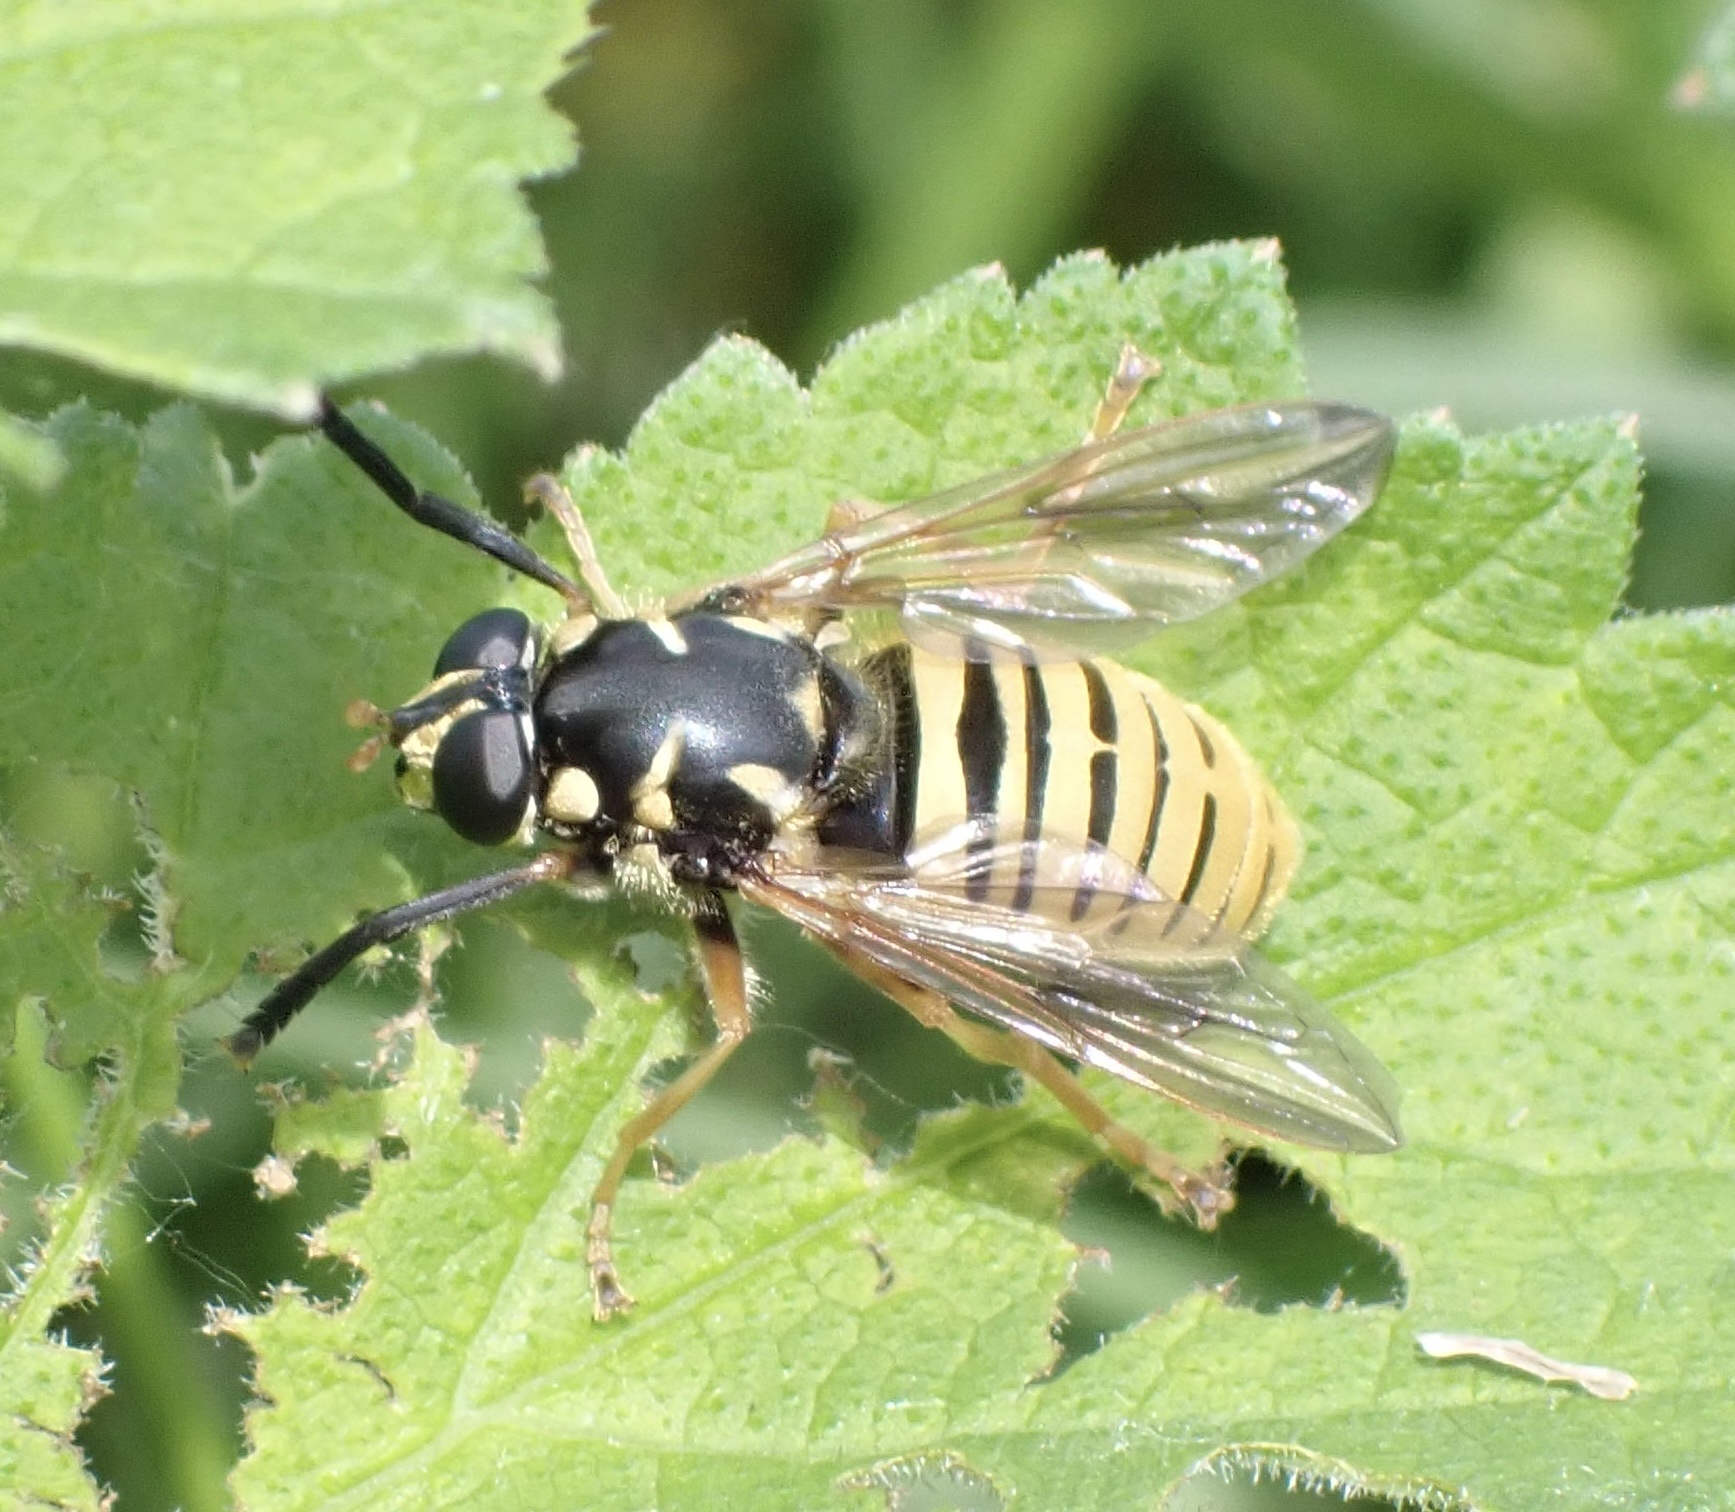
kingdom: Animalia
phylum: Arthropoda
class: Insecta
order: Diptera
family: Syrphidae
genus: Temnostoma
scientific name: Temnostoma vespiforme
